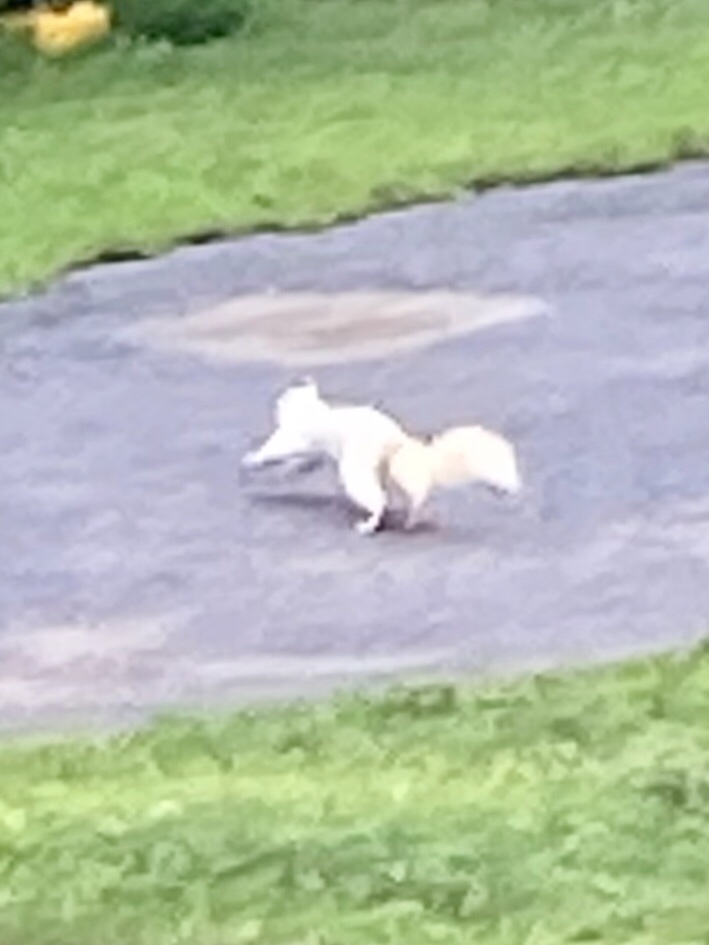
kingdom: Animalia
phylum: Chordata
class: Mammalia
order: Rodentia
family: Sciuridae
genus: Sciurus
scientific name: Sciurus carolinensis
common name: Eastern gray squirrel
